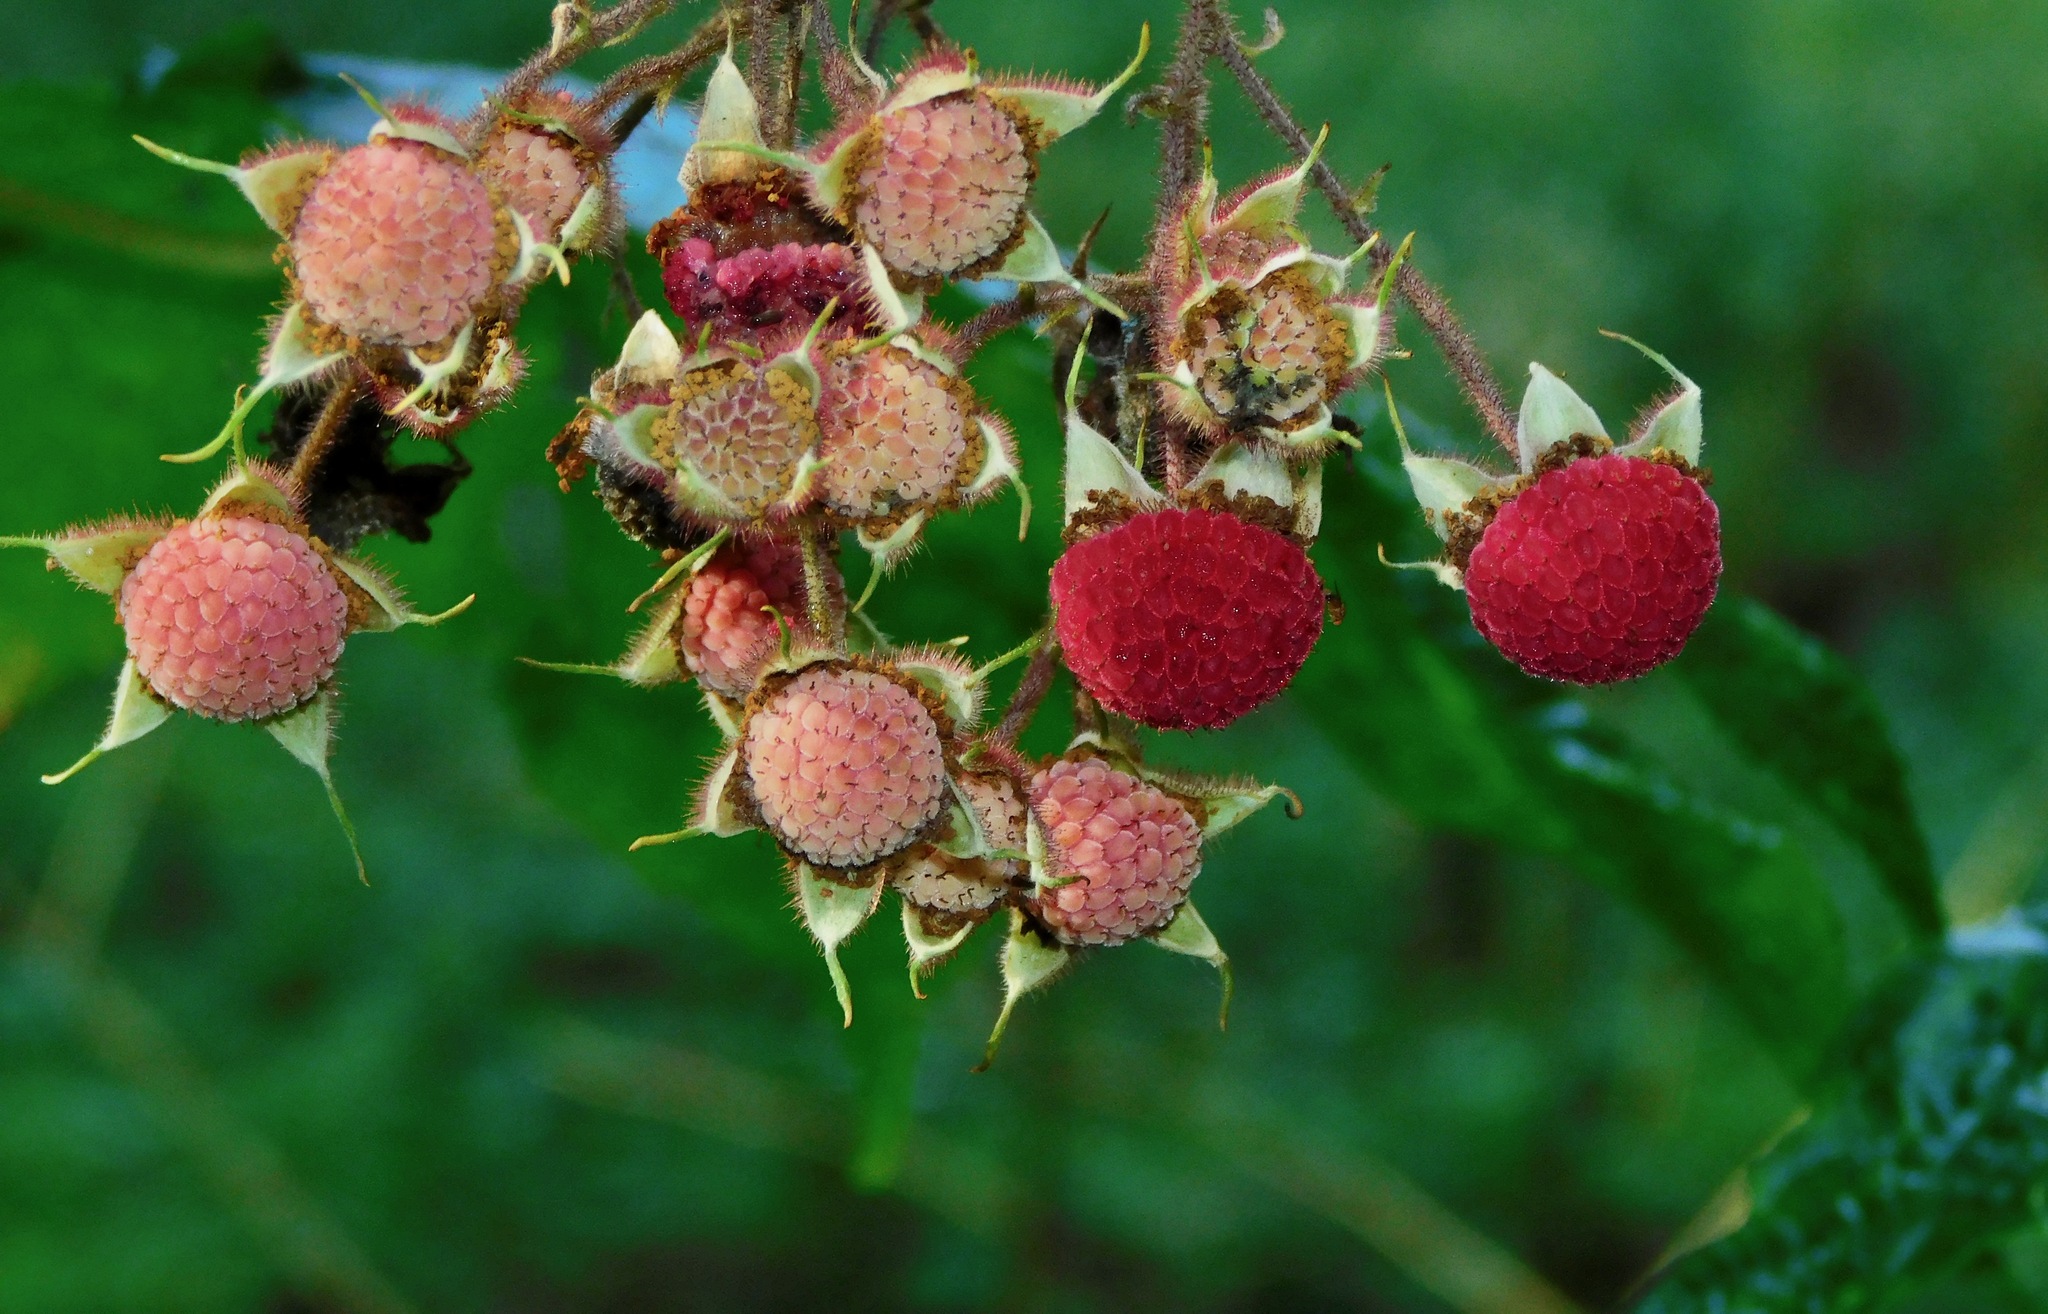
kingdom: Plantae
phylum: Tracheophyta
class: Magnoliopsida
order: Rosales
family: Rosaceae
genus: Rubus
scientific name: Rubus odoratus
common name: Purple-flowered raspberry
